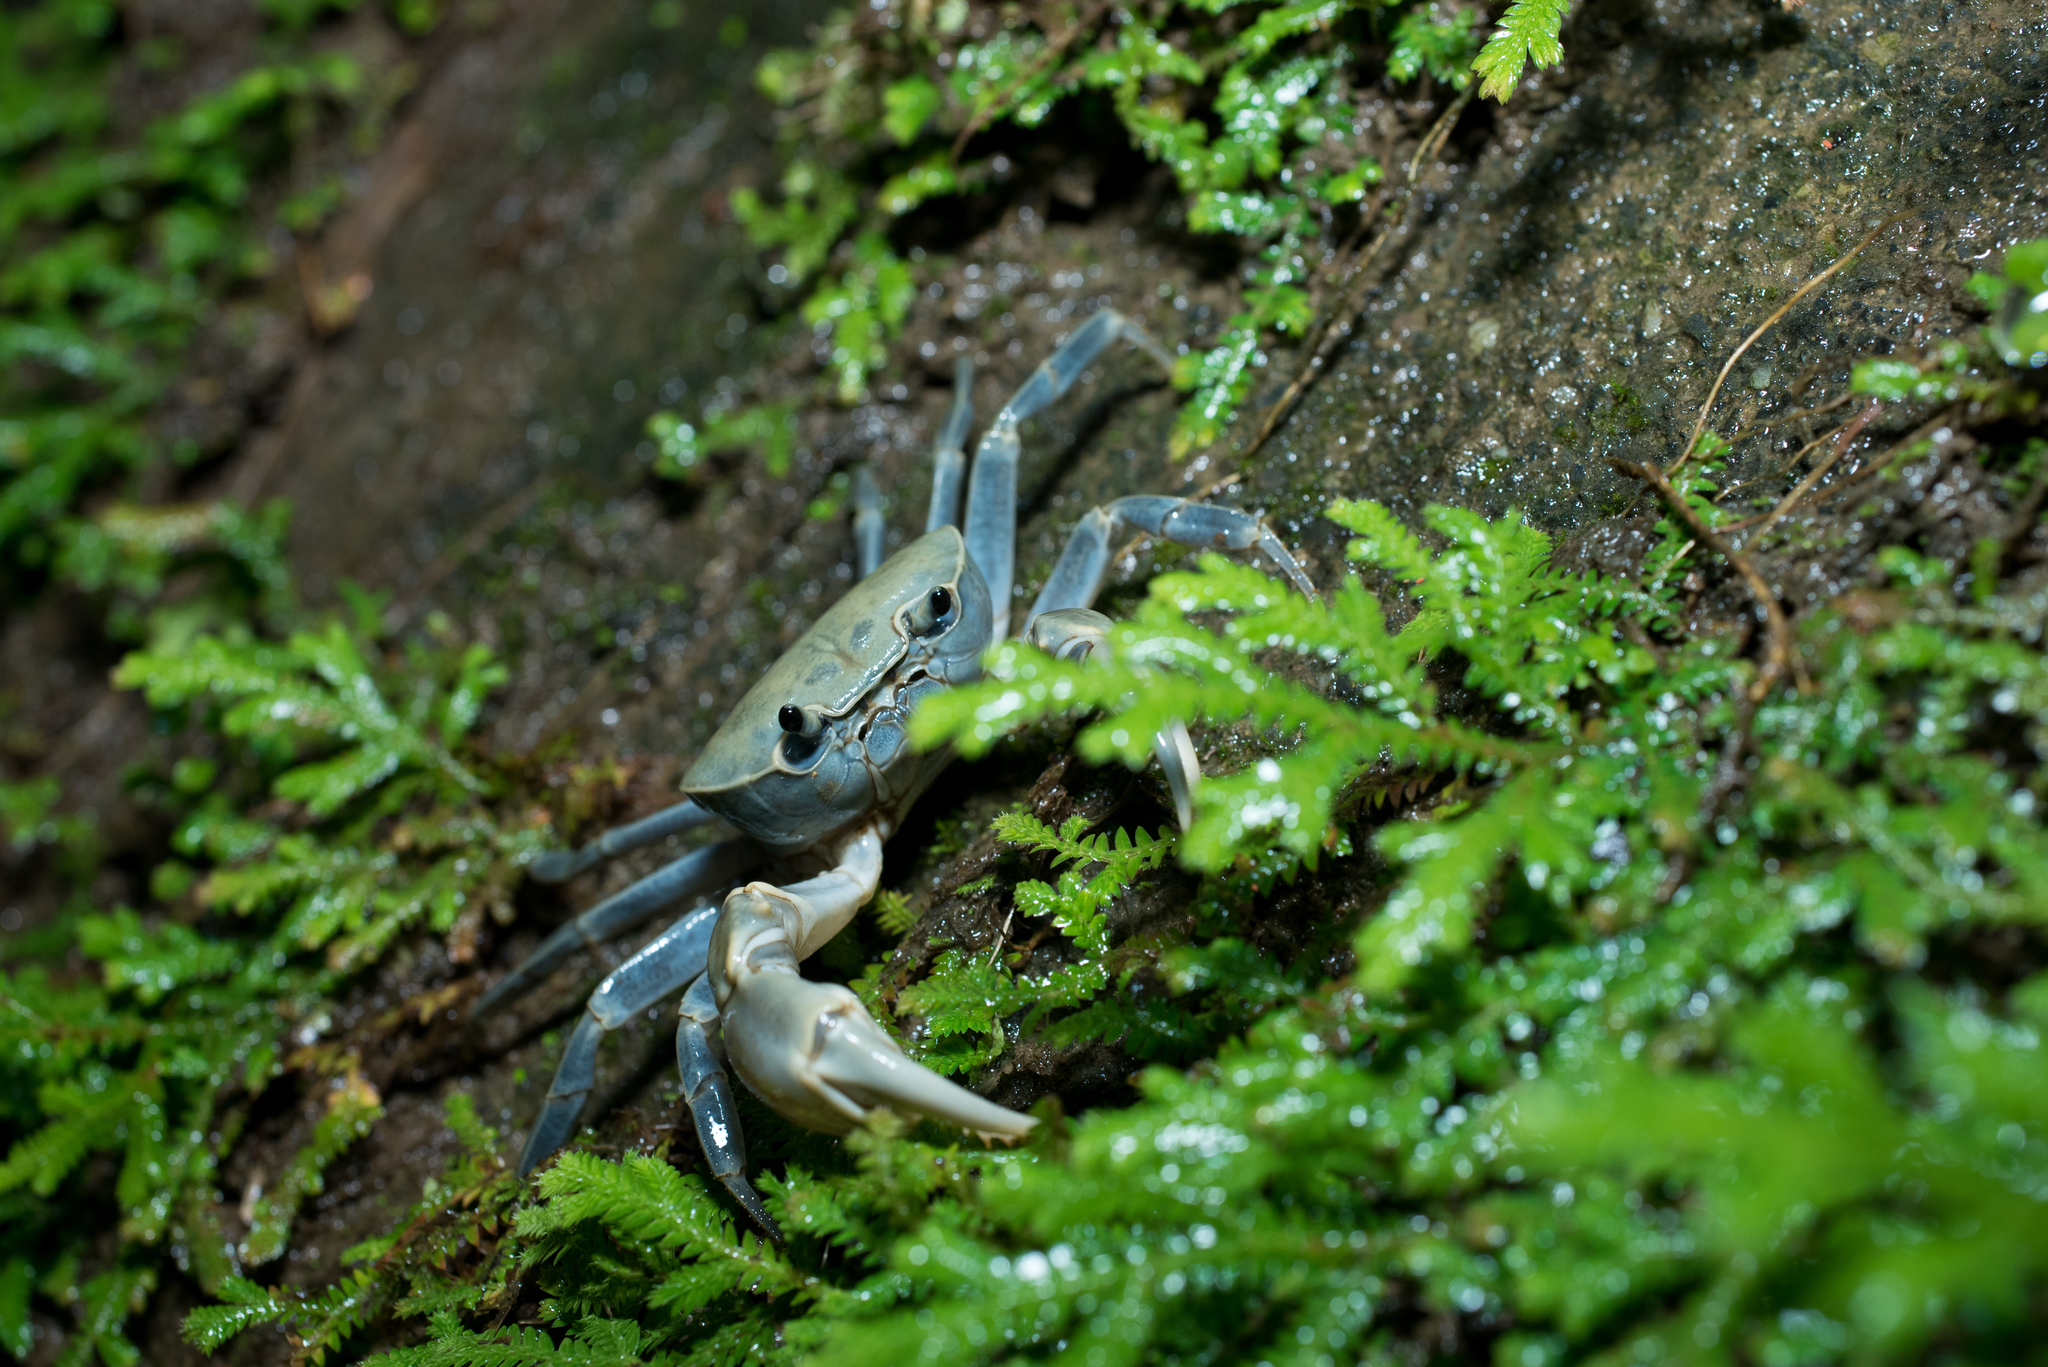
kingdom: Animalia
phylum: Arthropoda
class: Malacostraca
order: Decapoda
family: Potamidae
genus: Geothelphusa
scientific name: Geothelphusa olea
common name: Yellow-green crab
